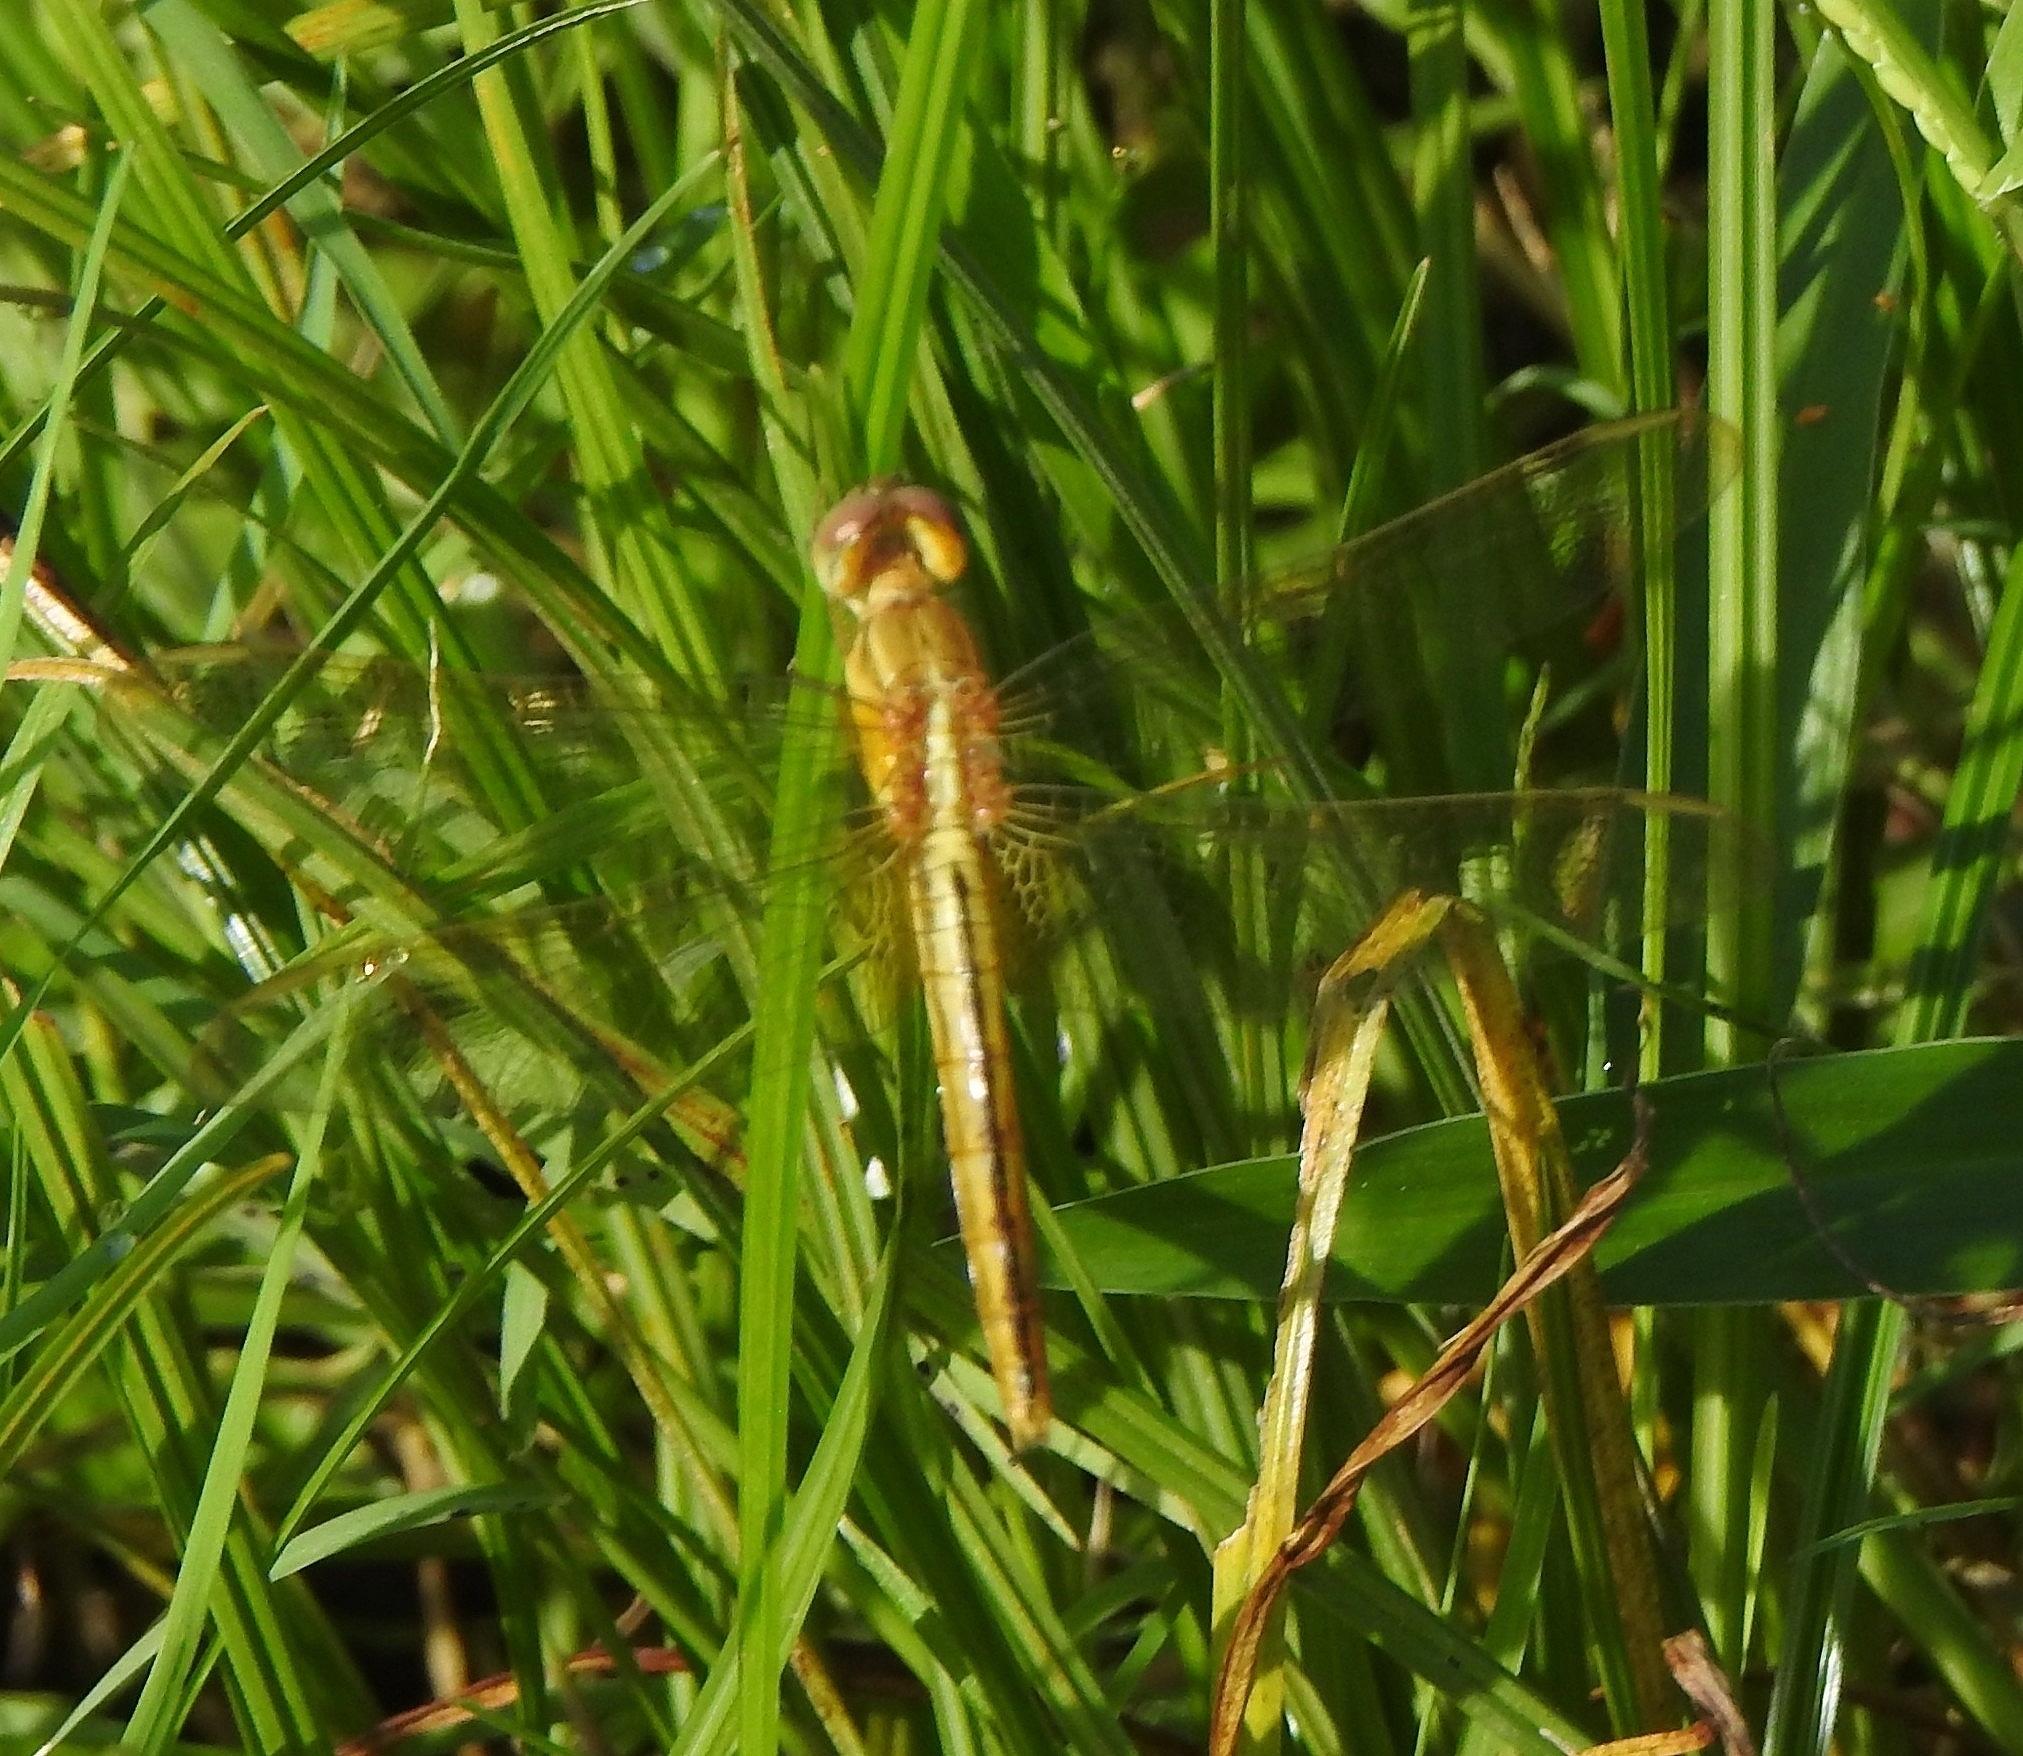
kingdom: Animalia
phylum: Arthropoda
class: Insecta
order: Odonata
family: Libellulidae
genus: Crocothemis
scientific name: Crocothemis servilia
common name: Scarlet skimmer
